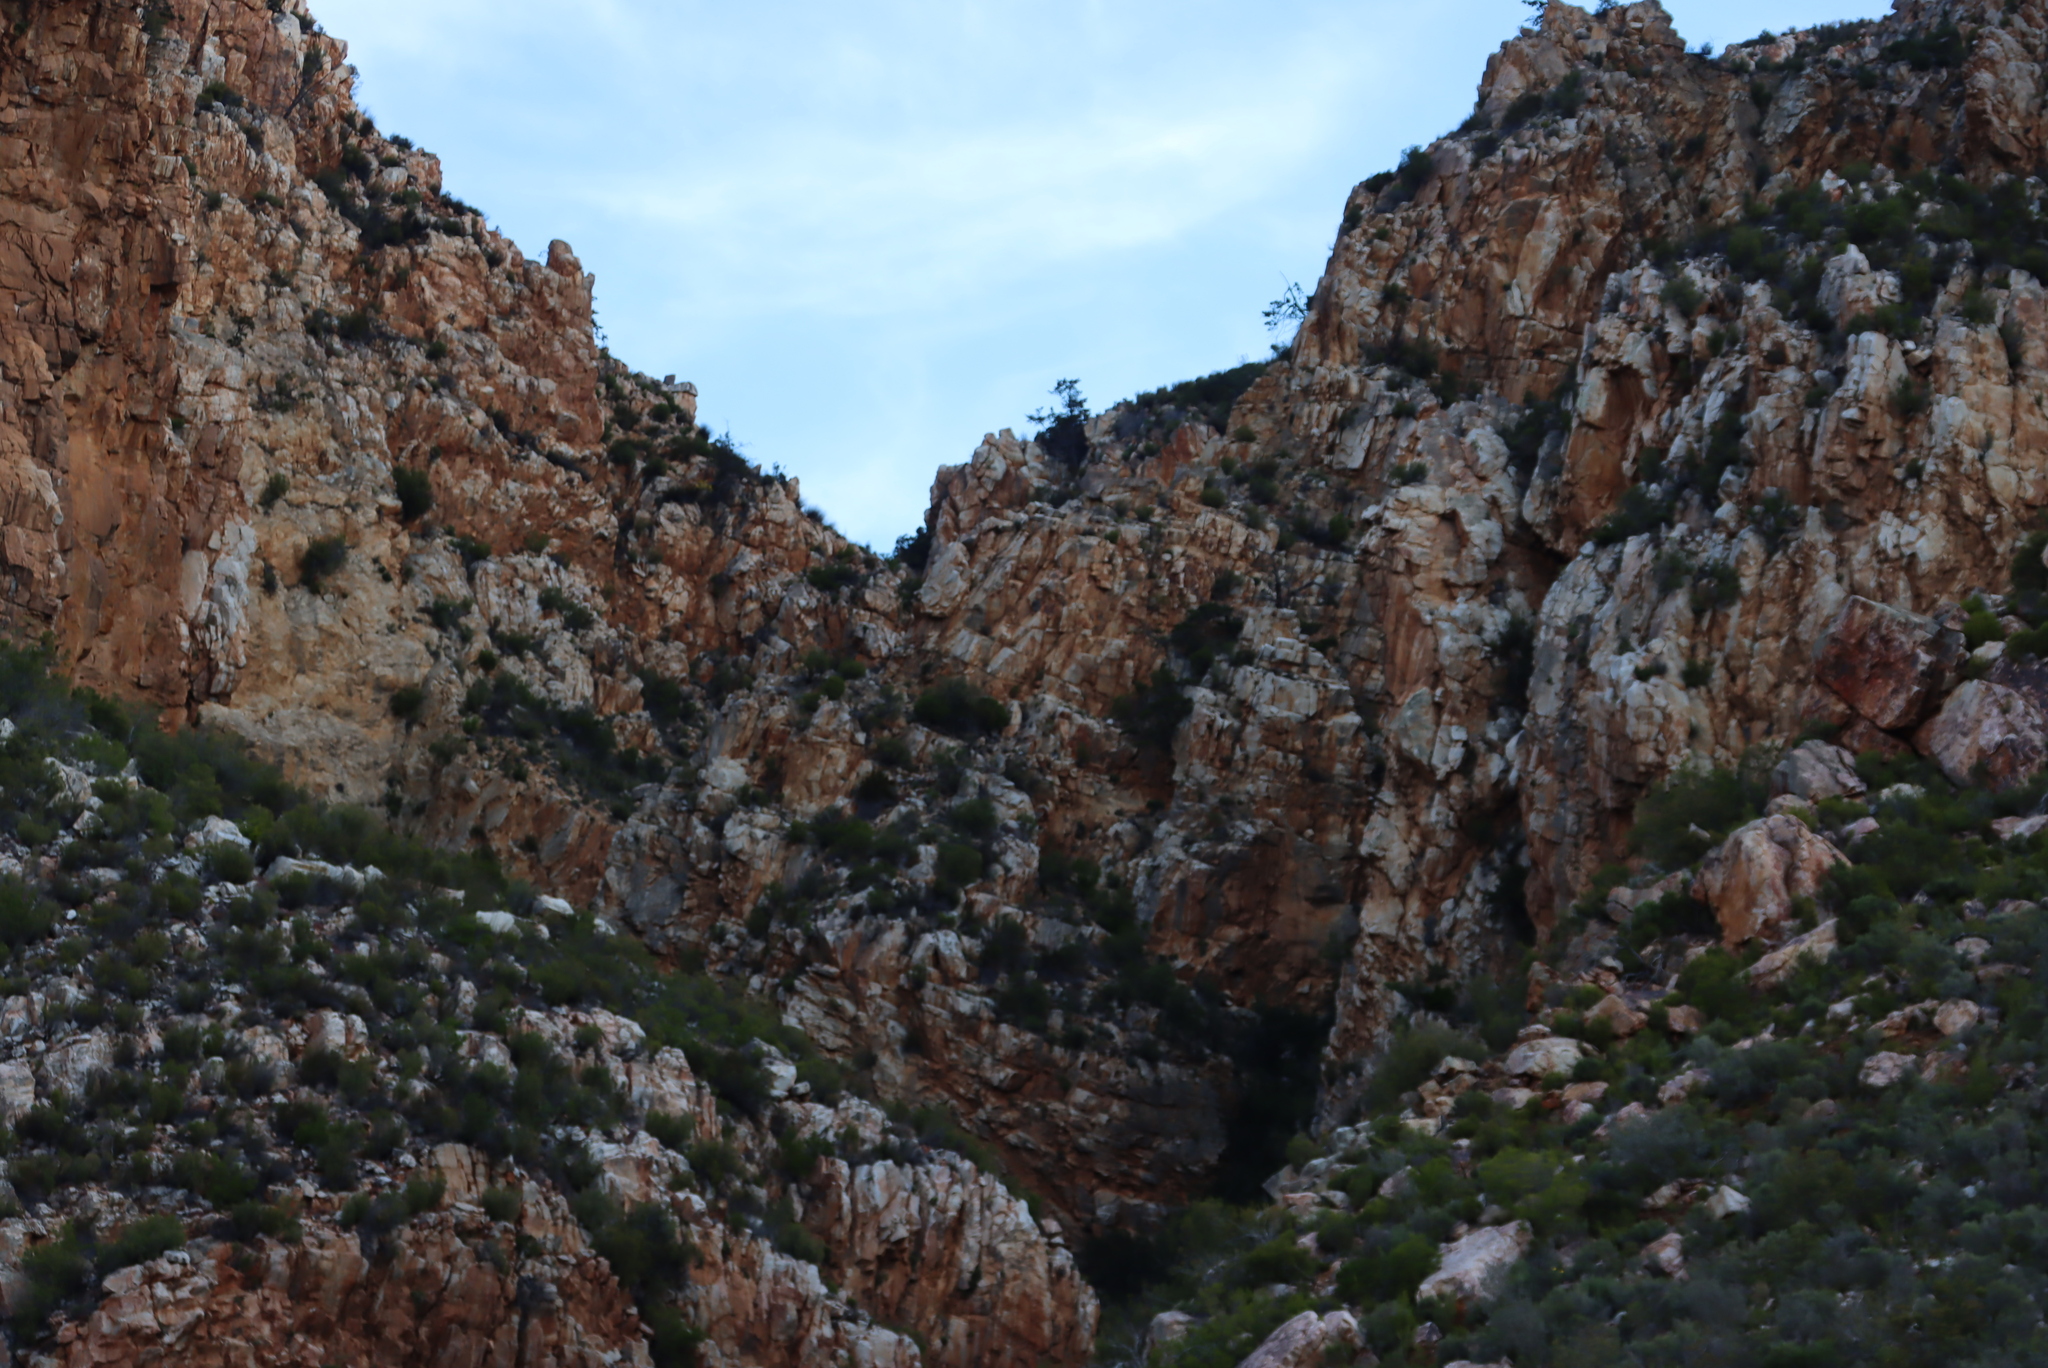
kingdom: Plantae
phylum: Tracheophyta
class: Pinopsida
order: Pinales
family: Cupressaceae
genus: Widdringtonia
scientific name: Widdringtonia schwarzii
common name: Baviaans cedar
